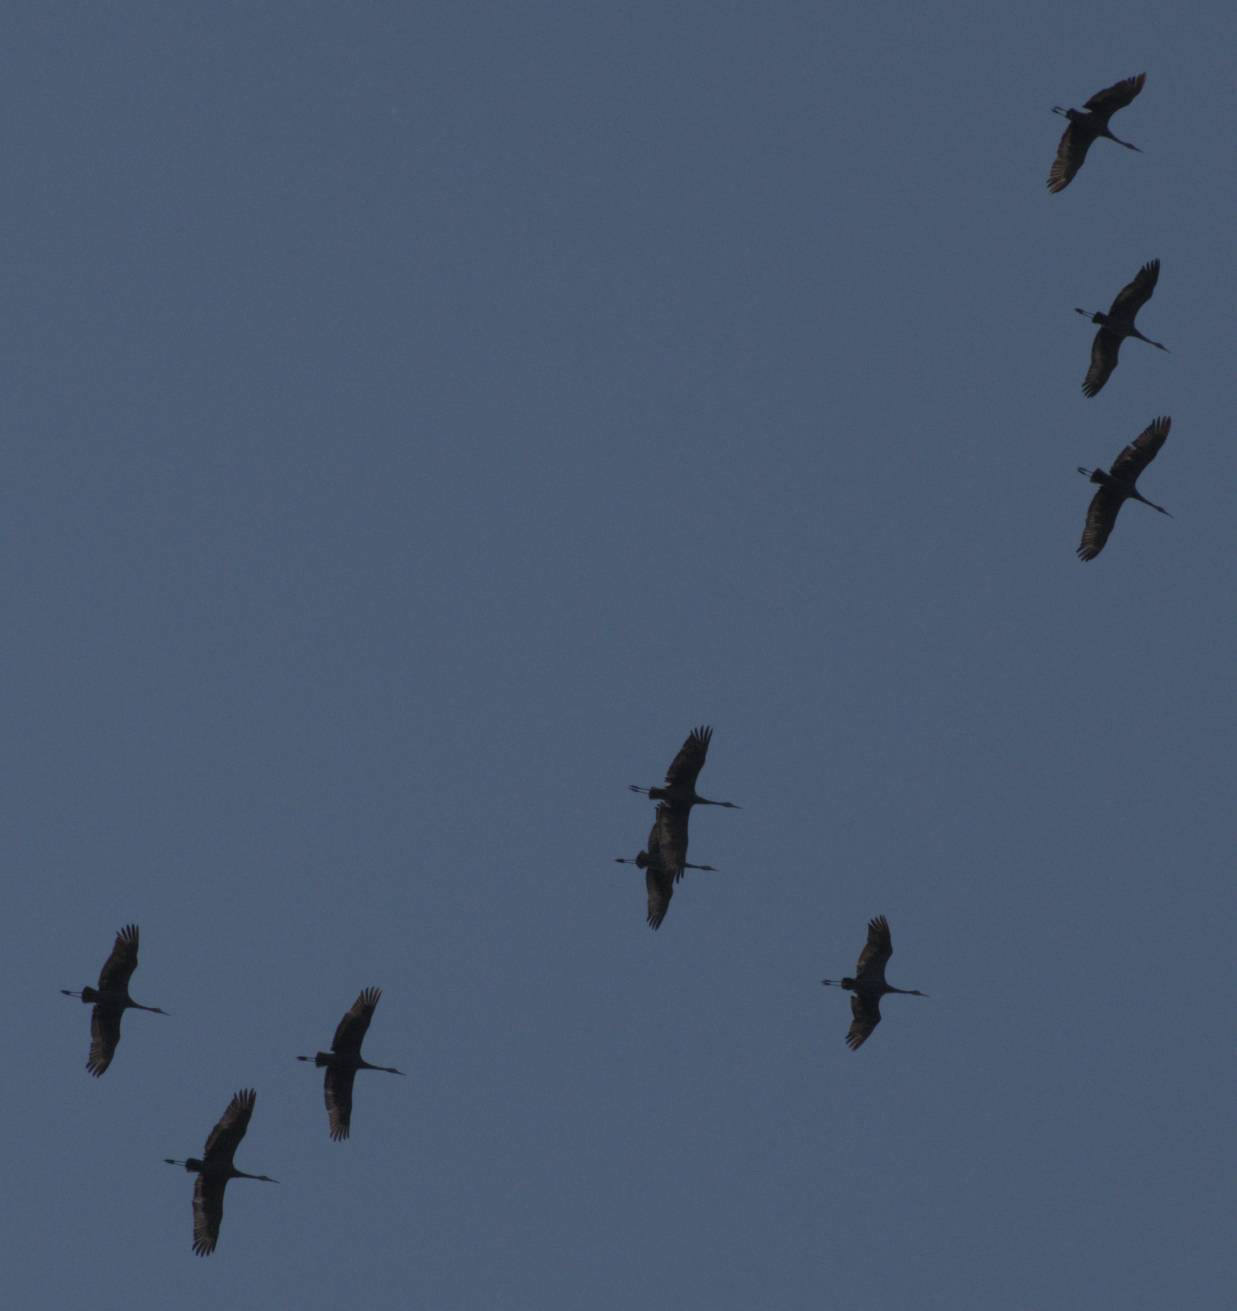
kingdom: Animalia
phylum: Chordata
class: Aves
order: Gruiformes
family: Gruidae
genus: Grus
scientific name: Grus canadensis
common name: Sandhill crane
